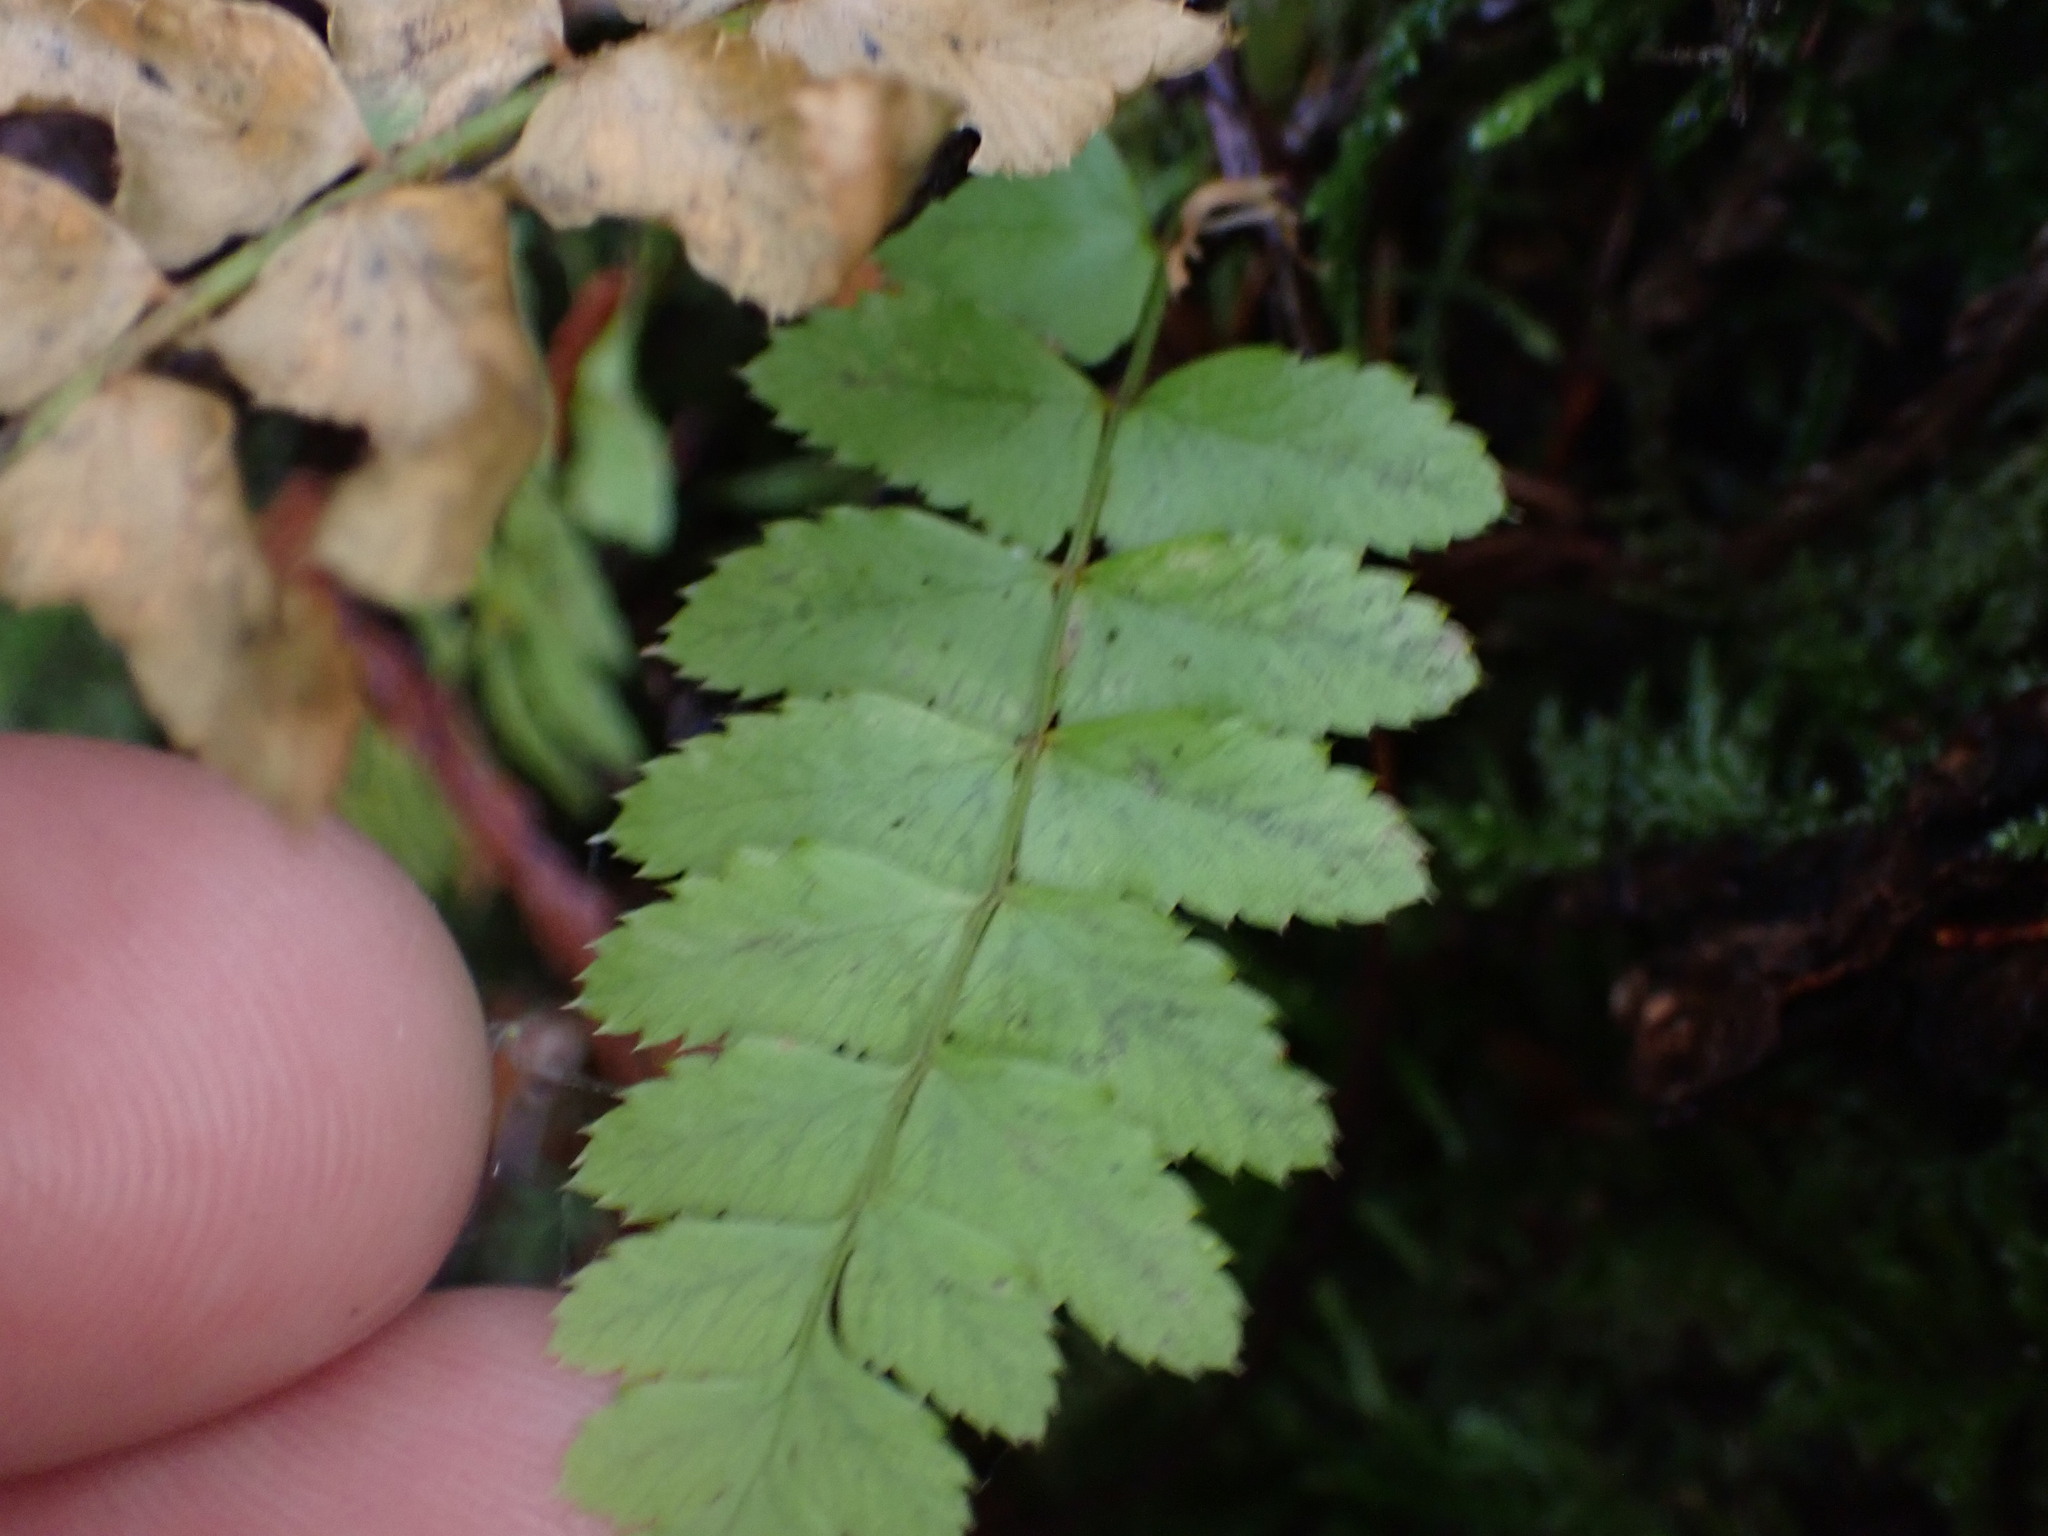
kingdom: Plantae
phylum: Tracheophyta
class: Polypodiopsida
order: Polypodiales
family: Dryopteridaceae
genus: Polystichum
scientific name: Polystichum munitum
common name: Western sword-fern
